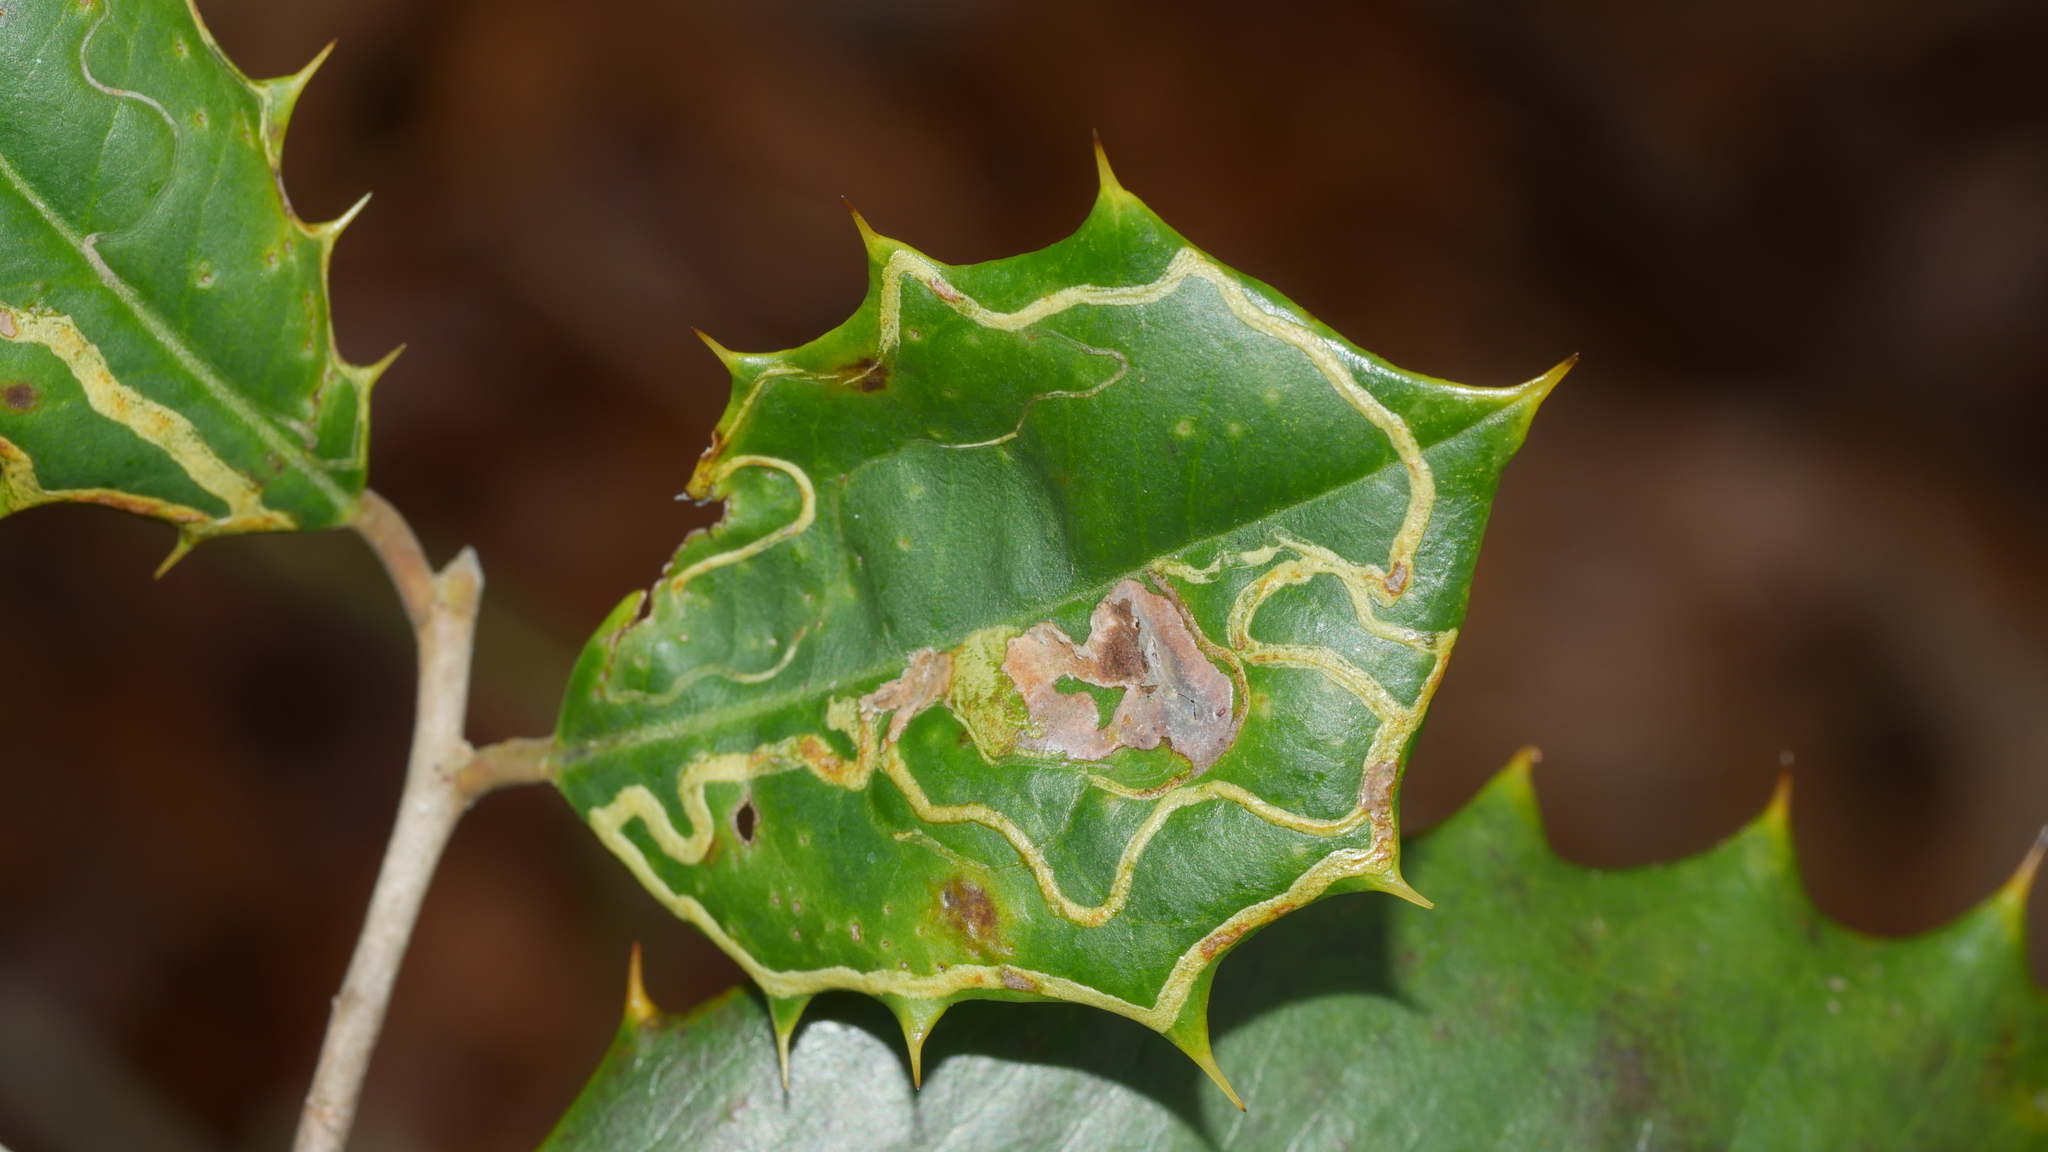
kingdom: Animalia
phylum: Arthropoda
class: Insecta
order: Diptera
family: Agromyzidae
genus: Phytomyza
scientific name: Phytomyza opacae
